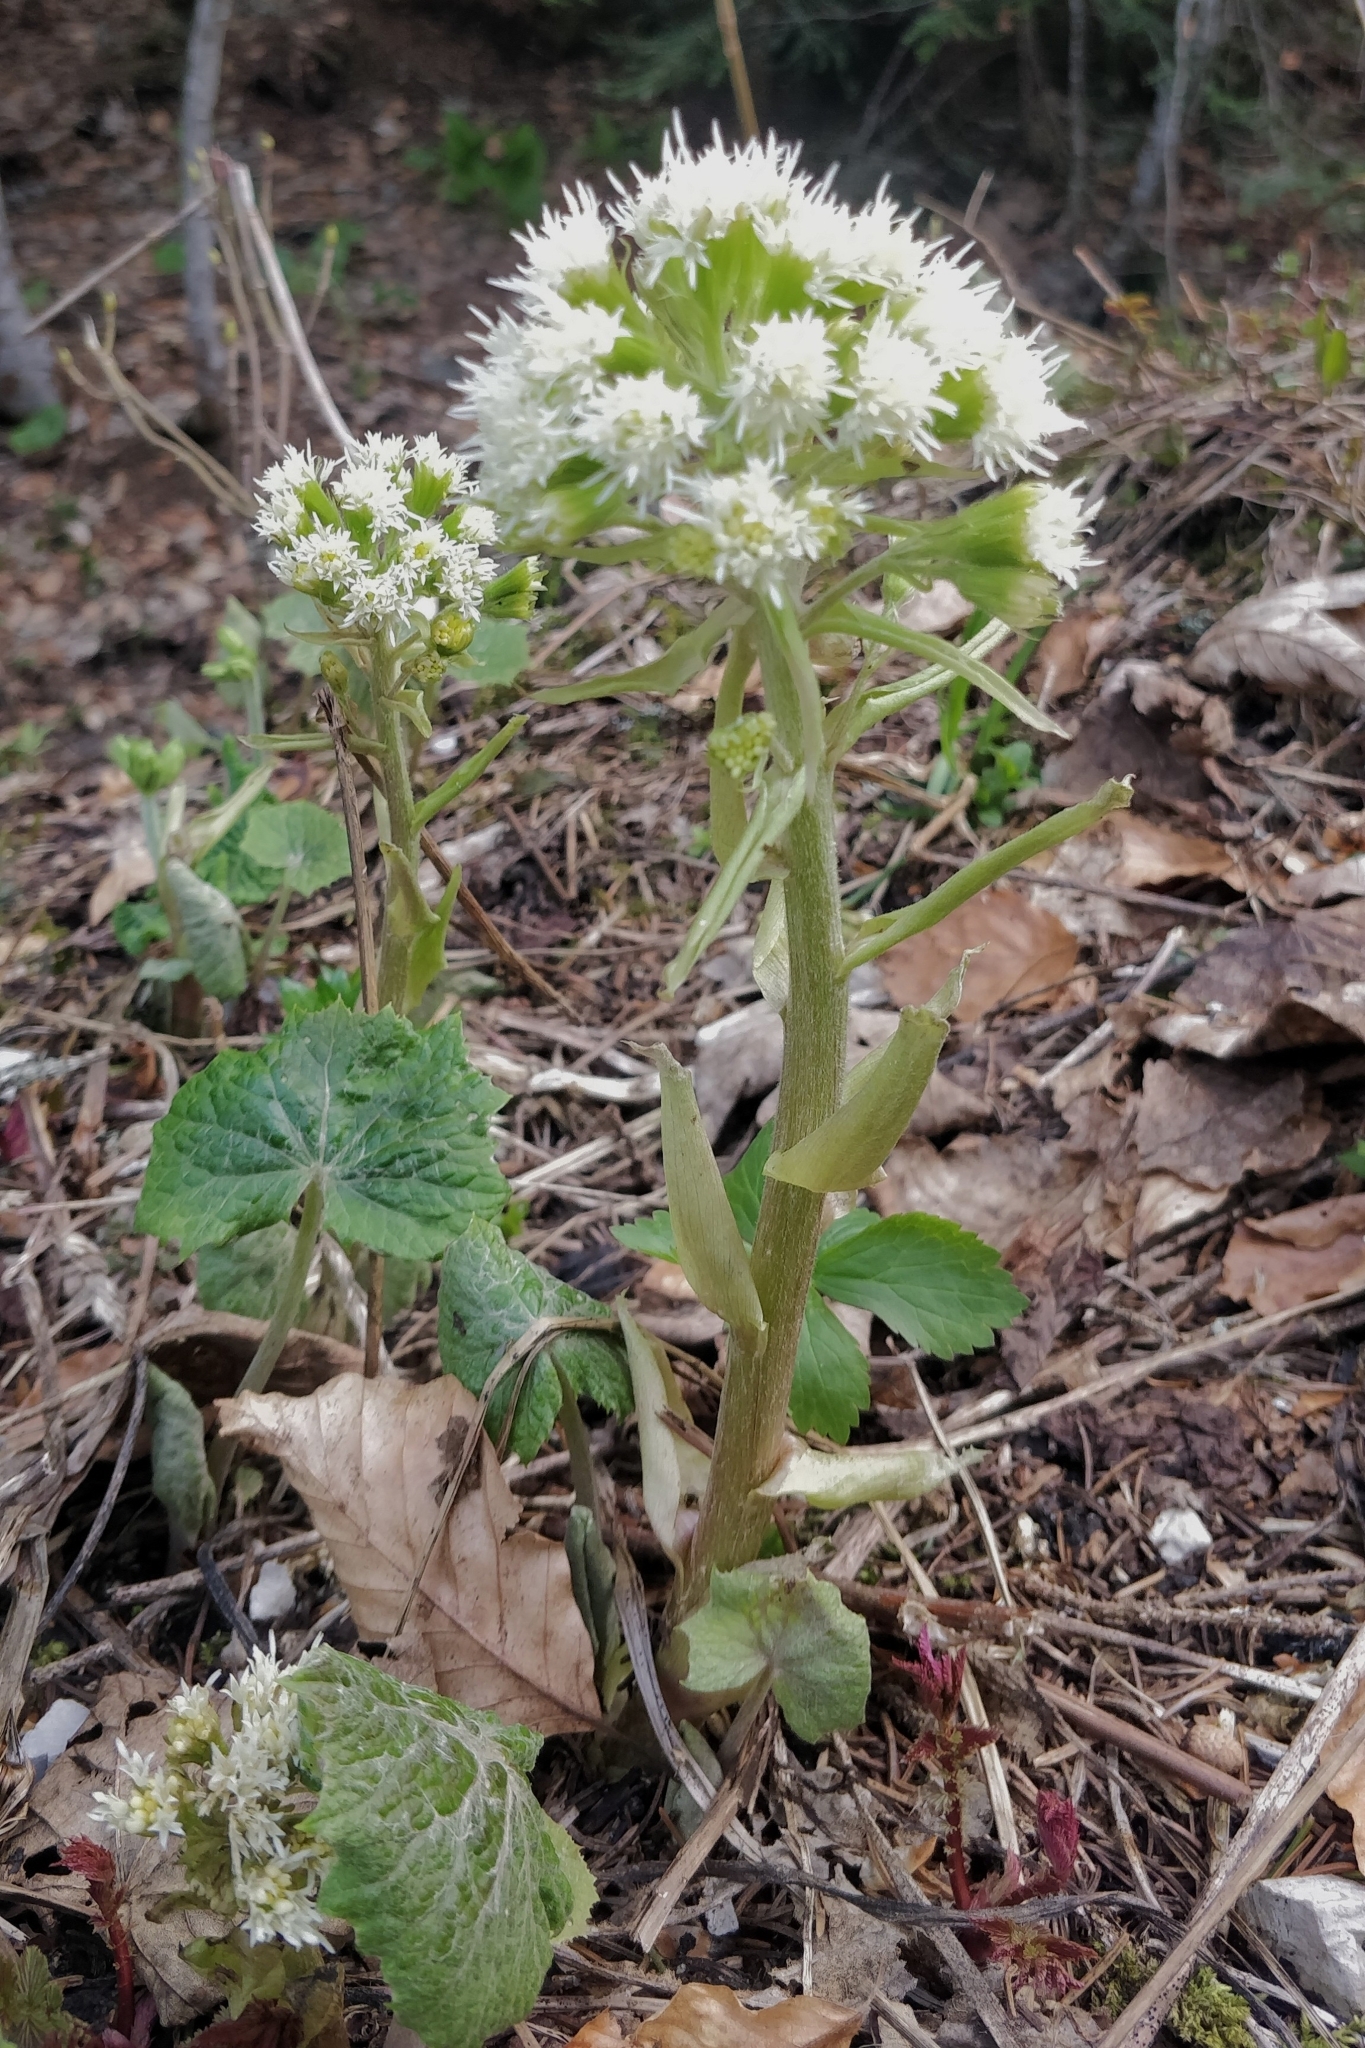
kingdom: Plantae
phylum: Tracheophyta
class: Magnoliopsida
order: Asterales
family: Asteraceae
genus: Petasites
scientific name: Petasites albus
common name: White butterbur
